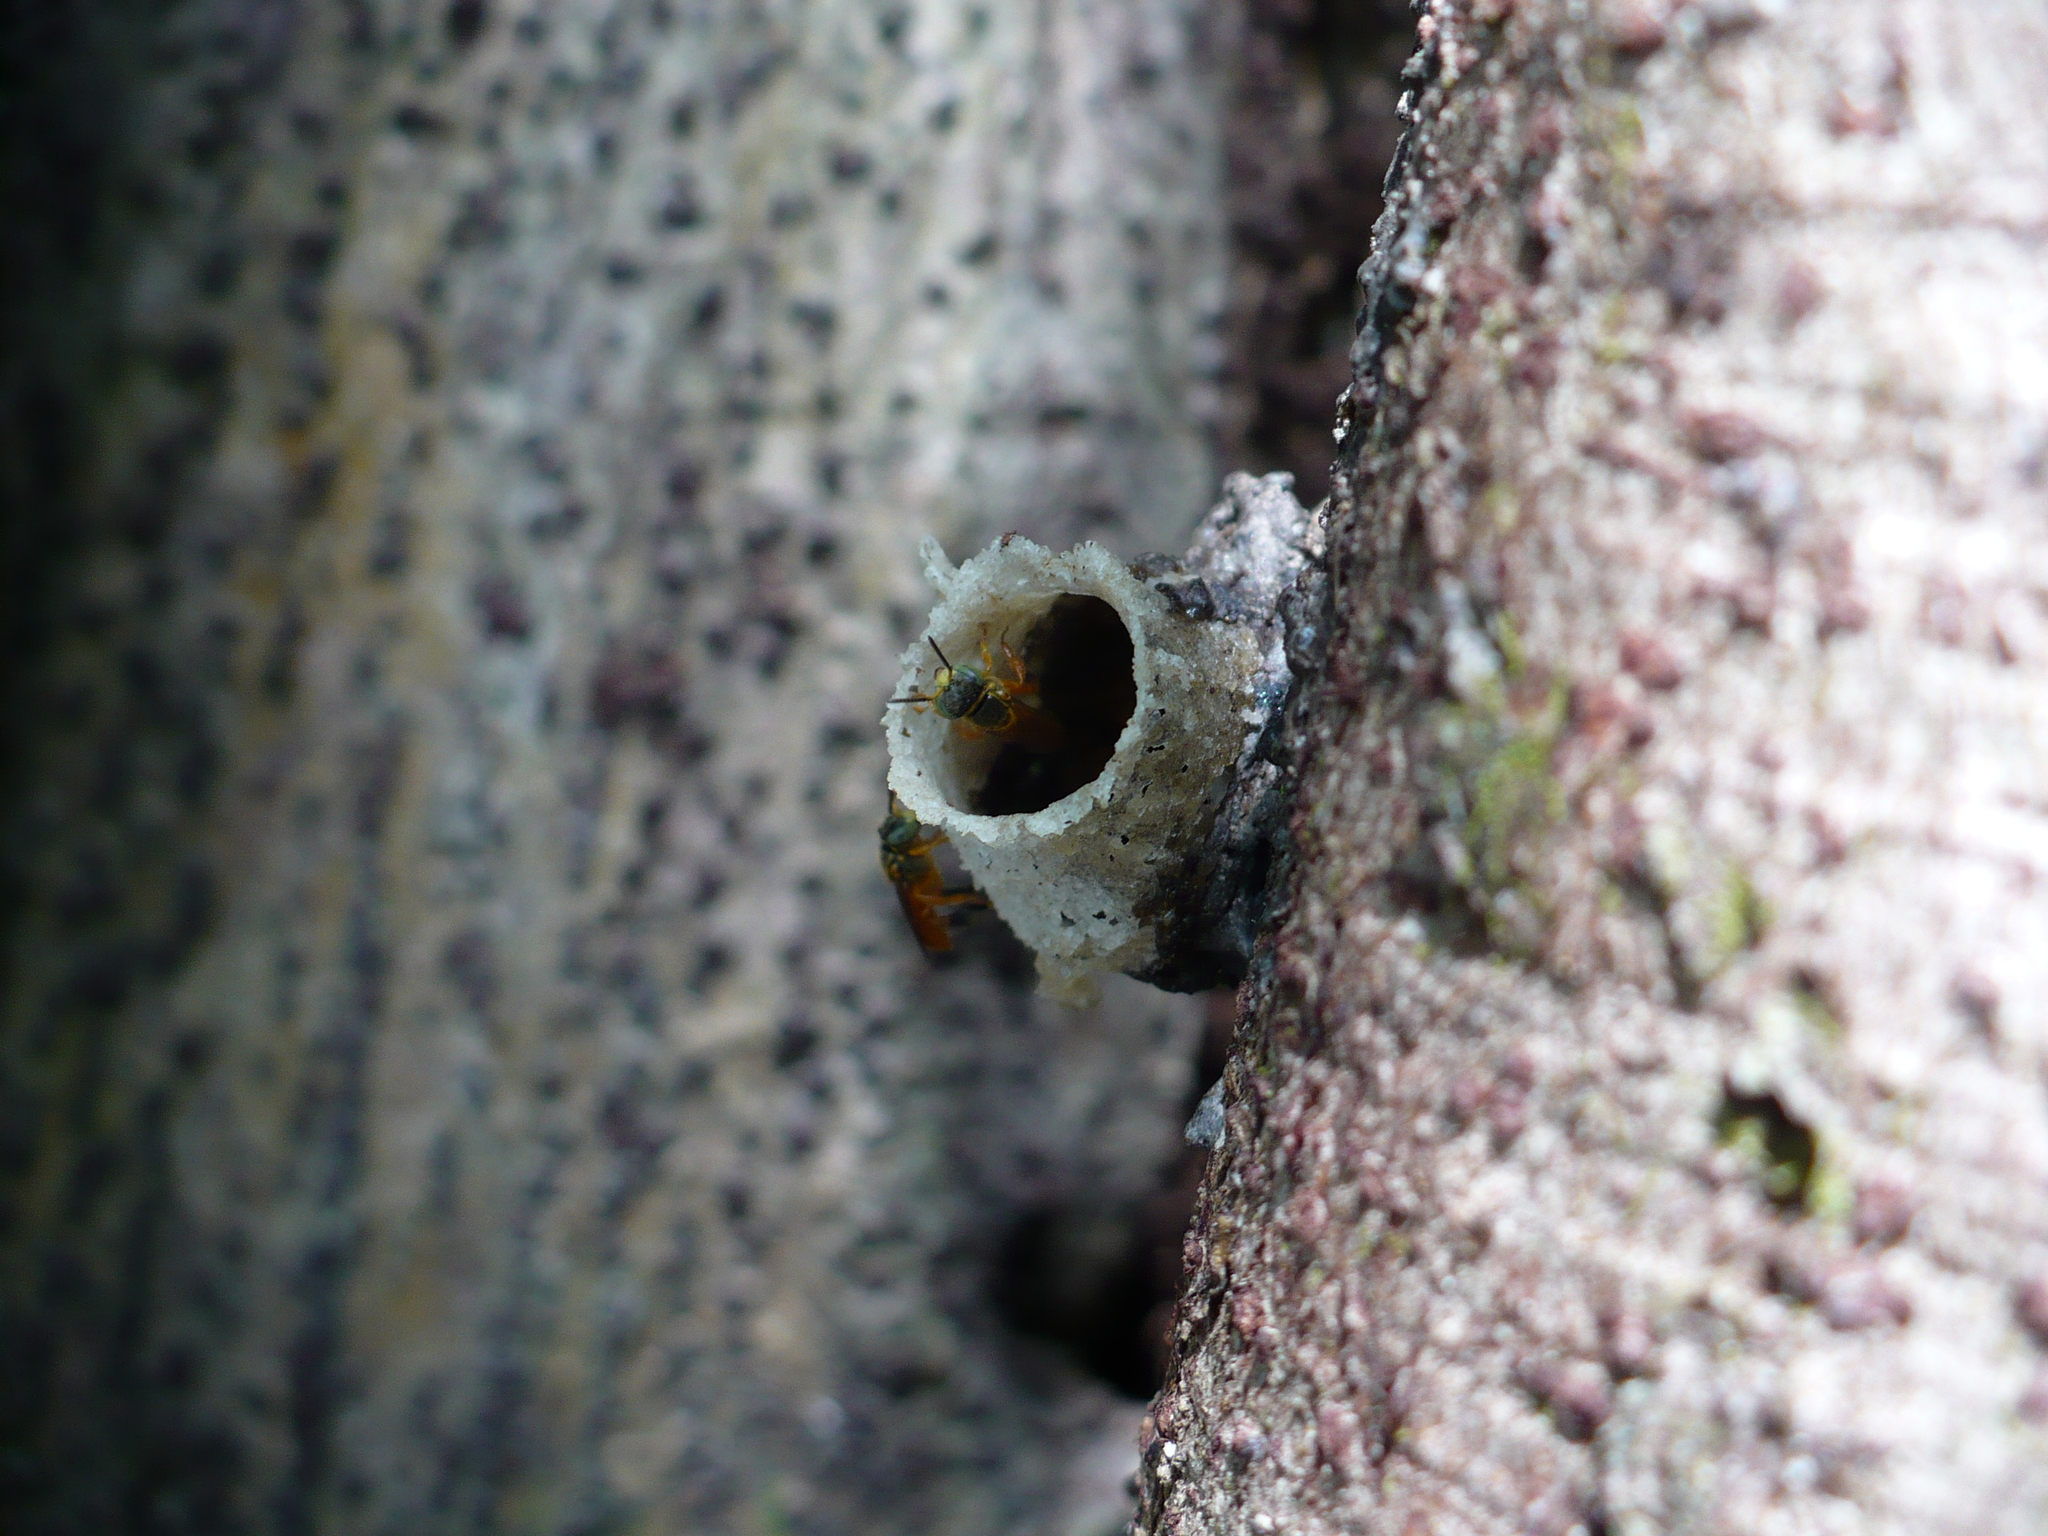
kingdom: Animalia
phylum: Arthropoda
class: Insecta
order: Hymenoptera
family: Apidae
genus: Tetragonisca
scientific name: Tetragonisca angustula
